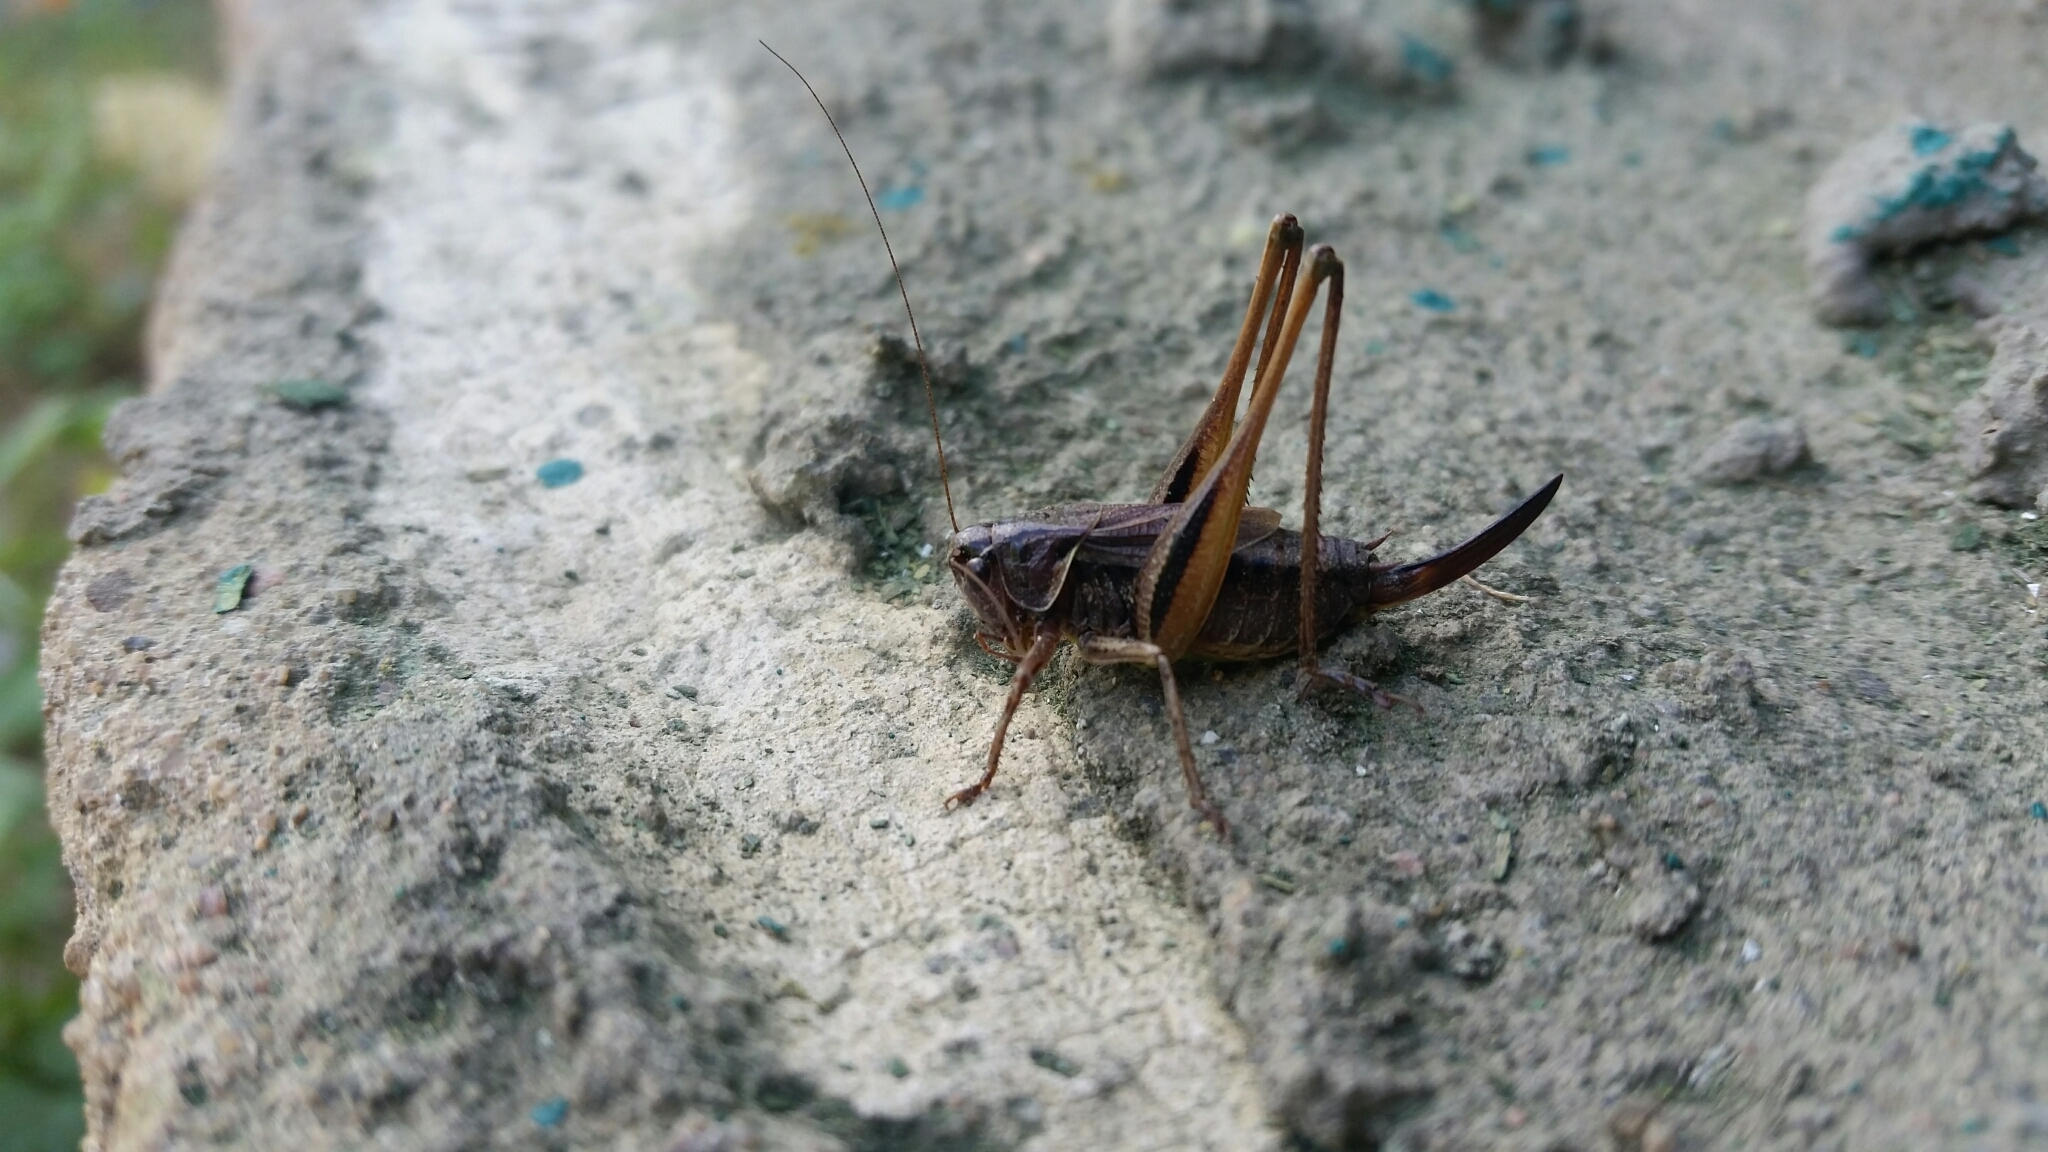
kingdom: Animalia
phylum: Arthropoda
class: Insecta
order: Orthoptera
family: Tettigoniidae
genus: Metrioptera
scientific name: Metrioptera brachyptera
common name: Bog bush-cricket
